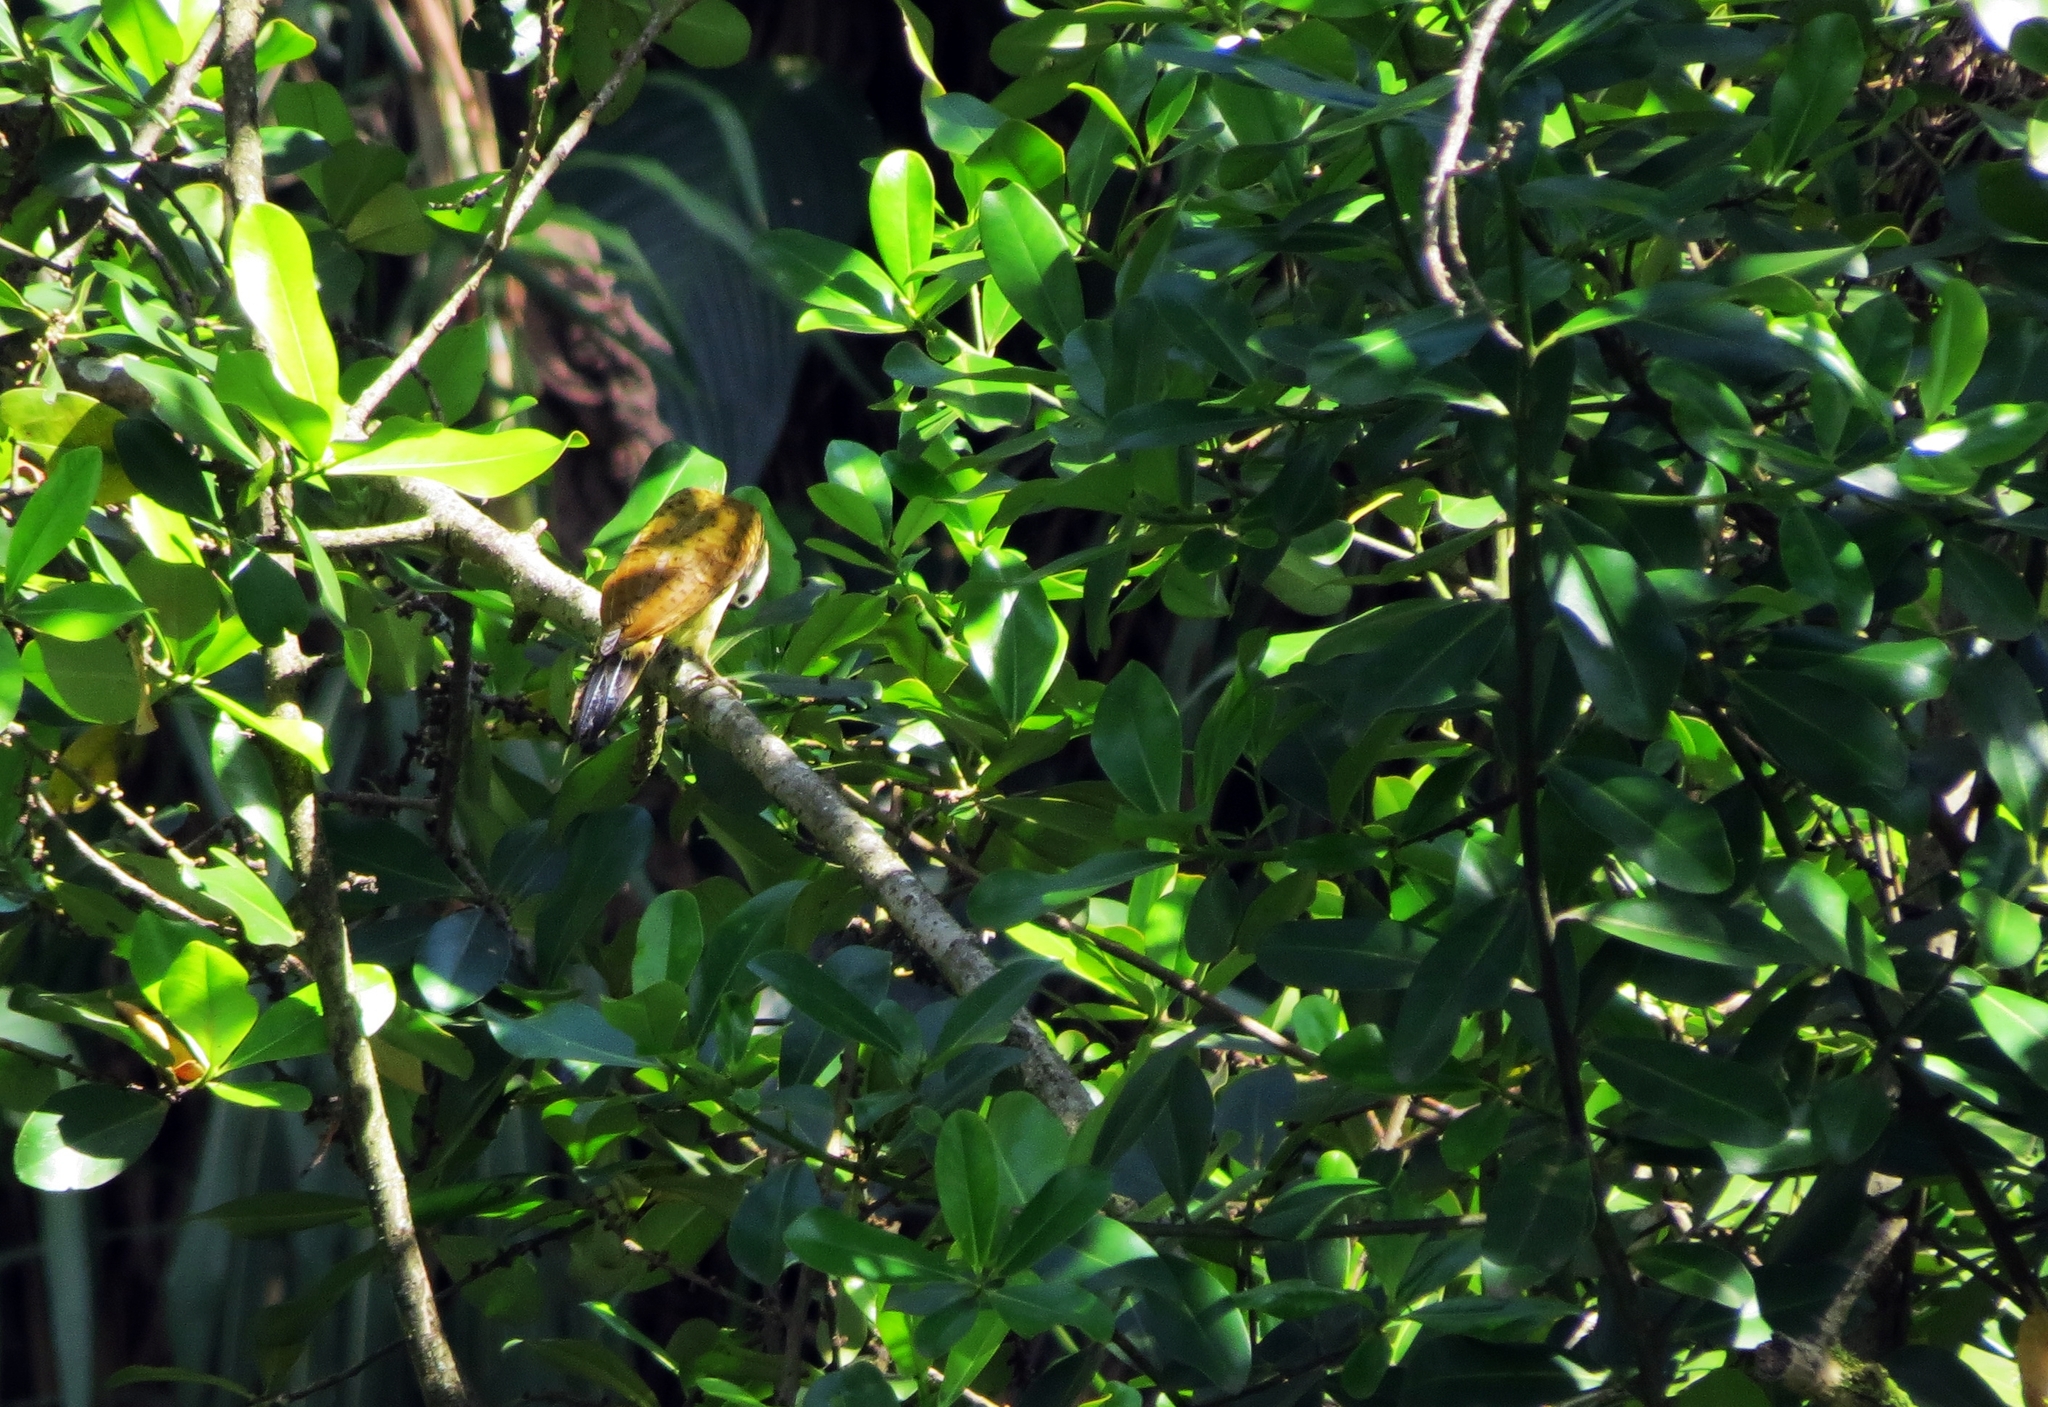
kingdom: Animalia
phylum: Chordata
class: Aves
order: Piciformes
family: Picidae
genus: Colaptes
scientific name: Colaptes punctigula
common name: Spot-breasted woodpecker
